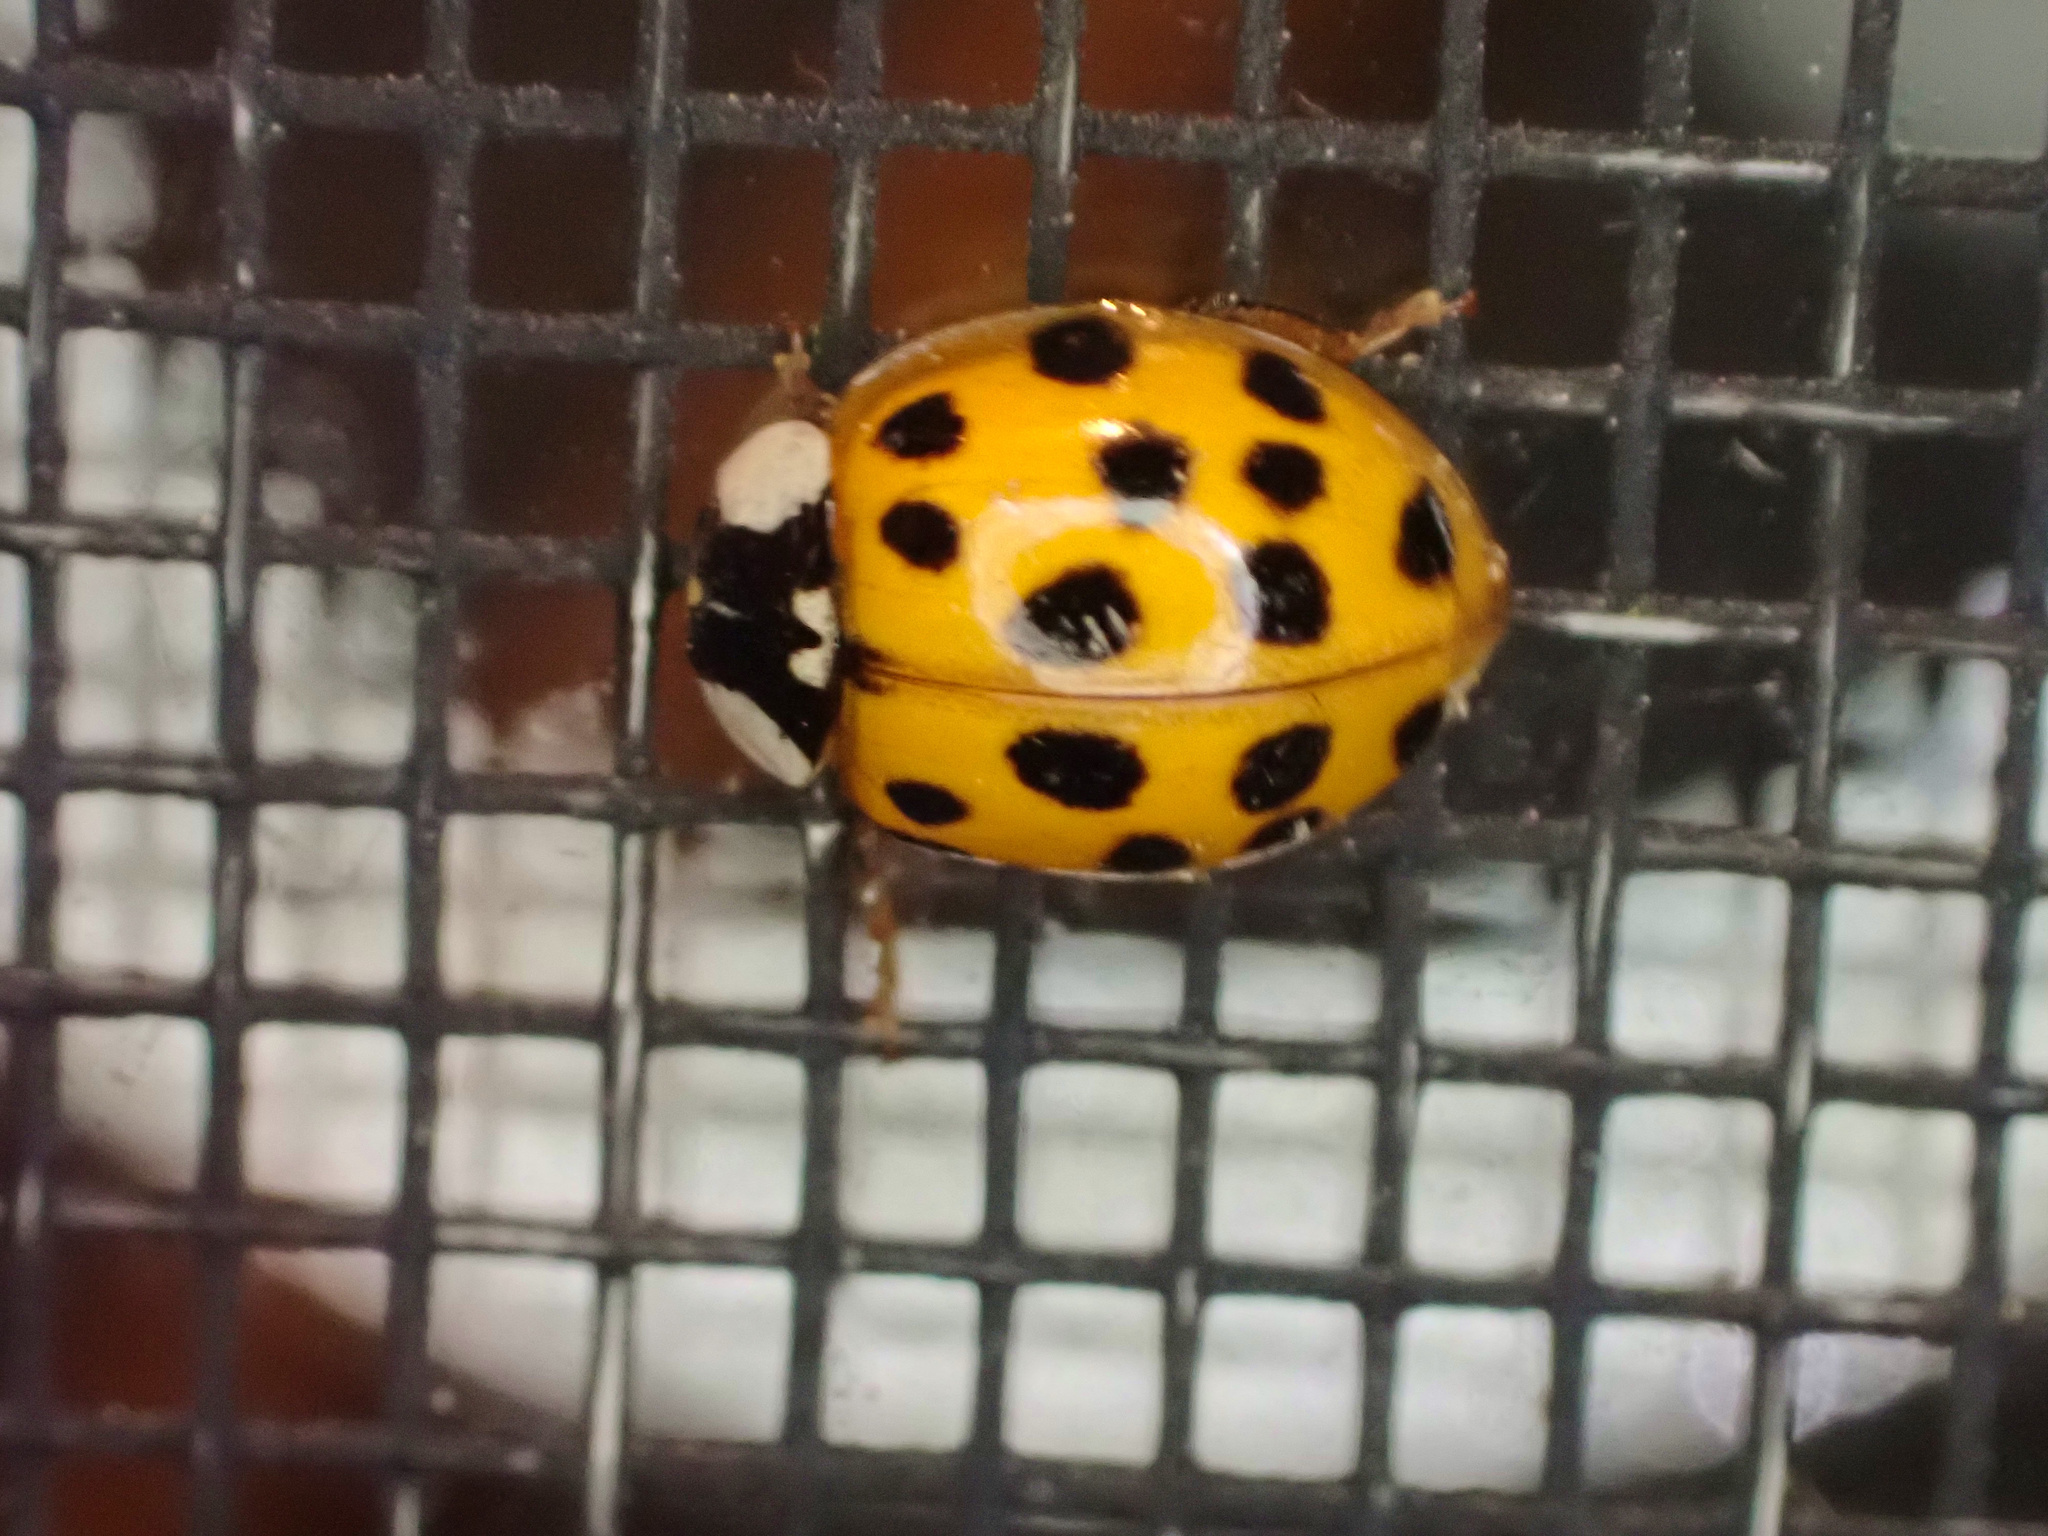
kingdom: Animalia
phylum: Arthropoda
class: Insecta
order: Coleoptera
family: Coccinellidae
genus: Harmonia
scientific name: Harmonia axyridis
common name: Harlequin ladybird
